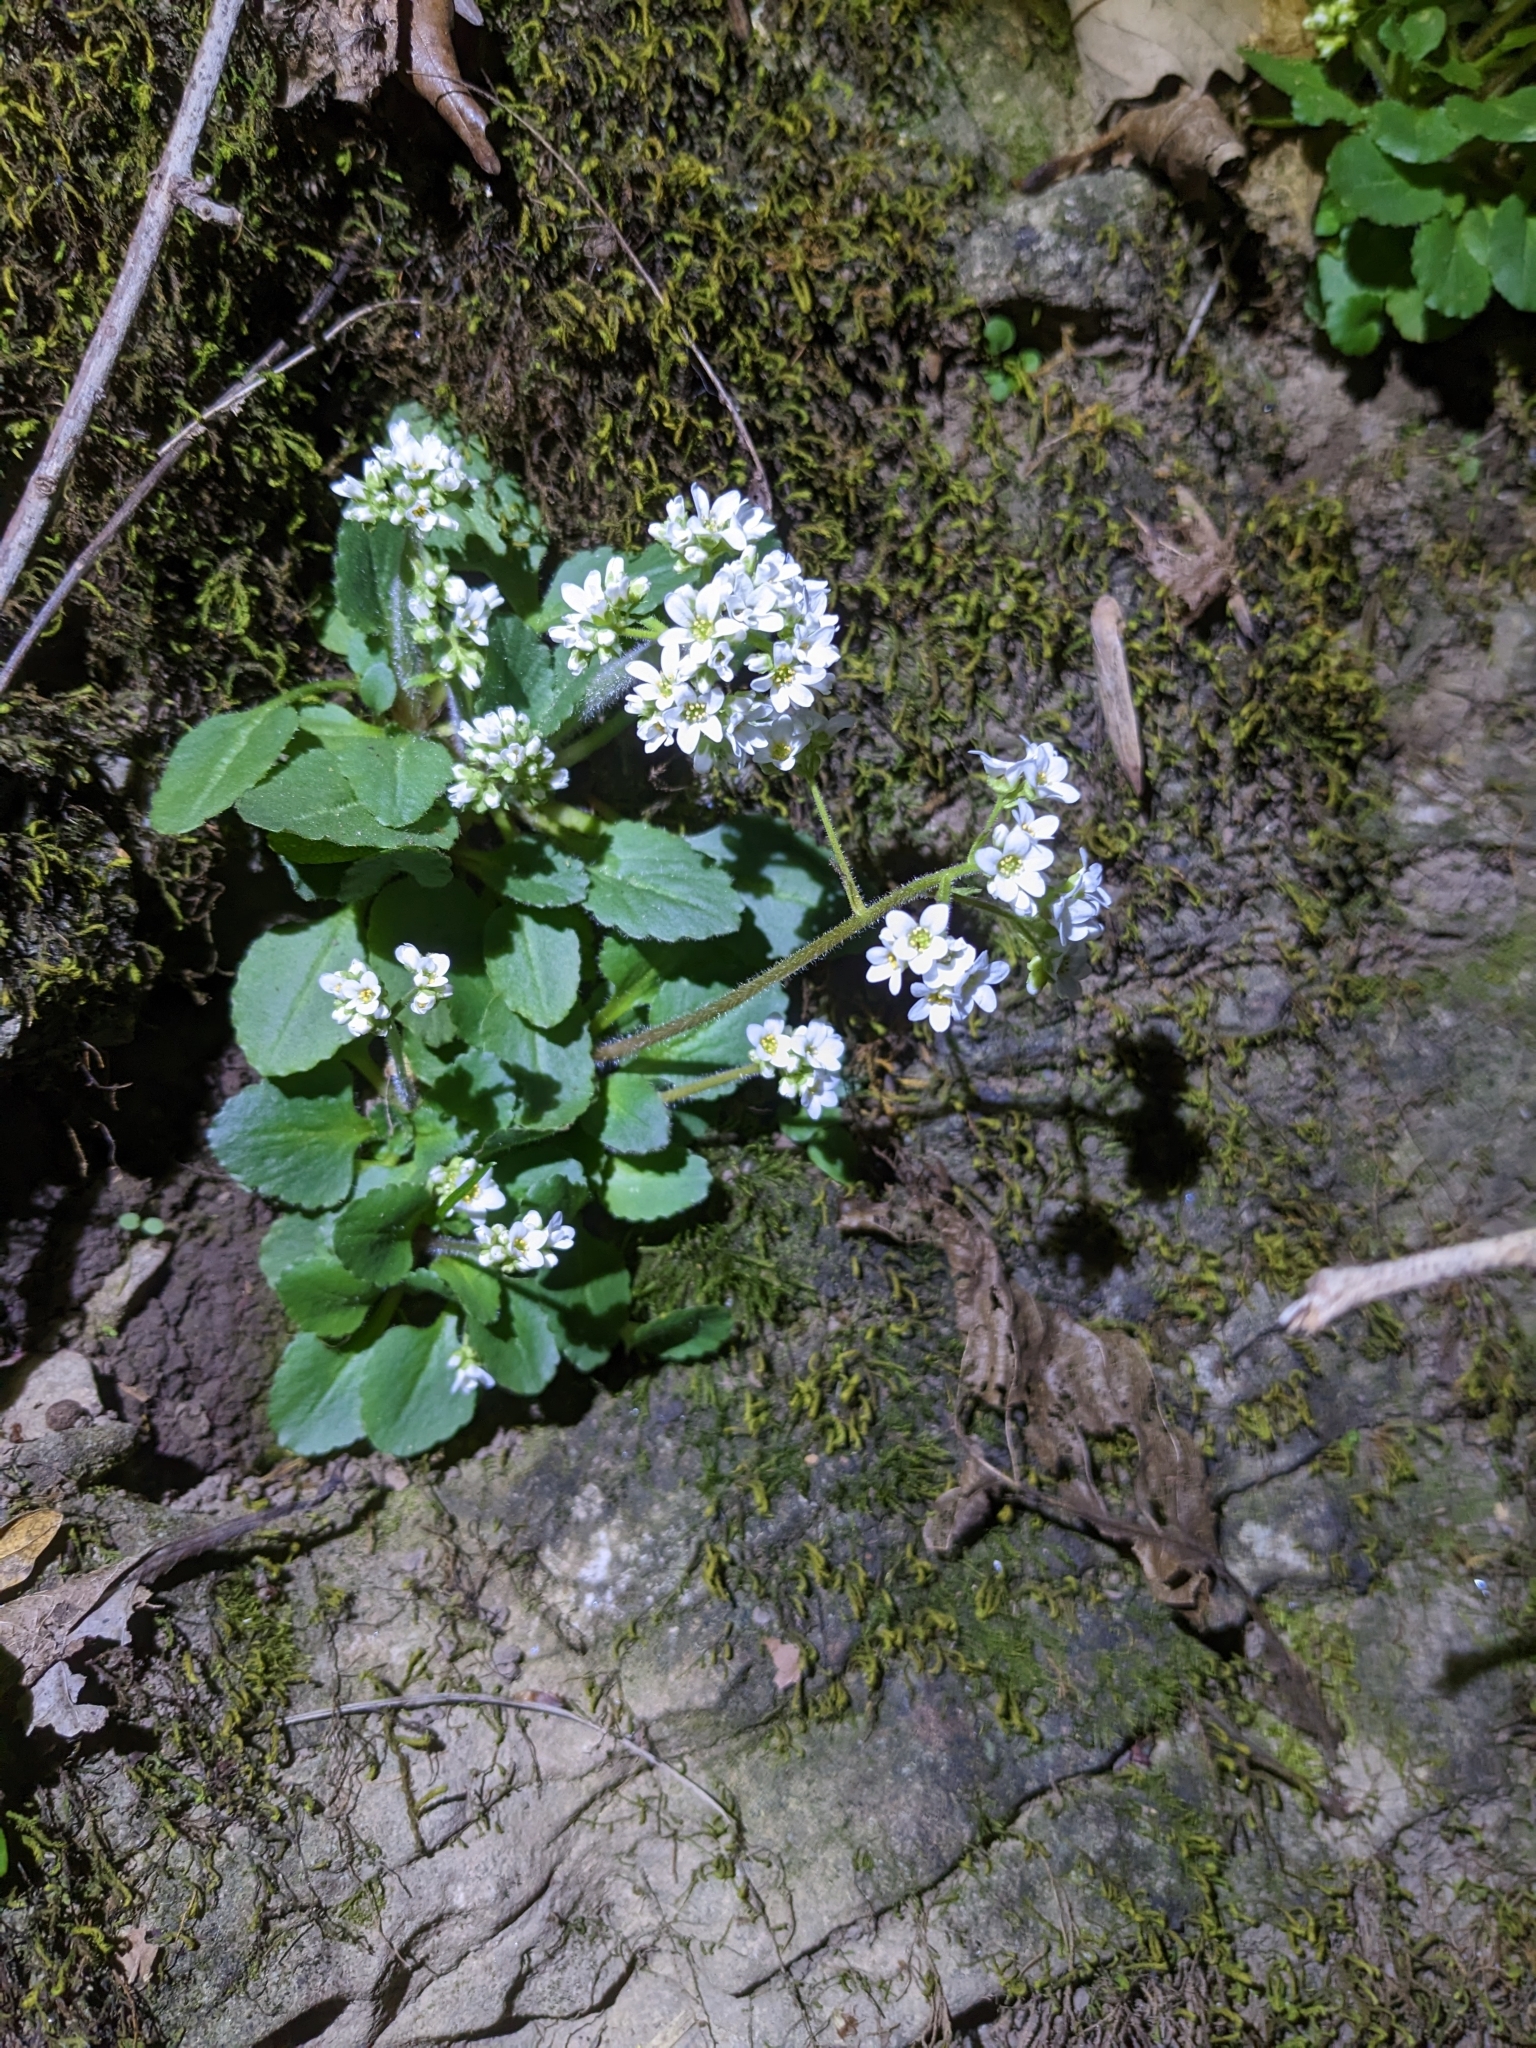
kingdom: Plantae
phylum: Tracheophyta
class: Magnoliopsida
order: Saxifragales
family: Saxifragaceae
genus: Micranthes
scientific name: Micranthes virginiensis
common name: Early saxifrage
